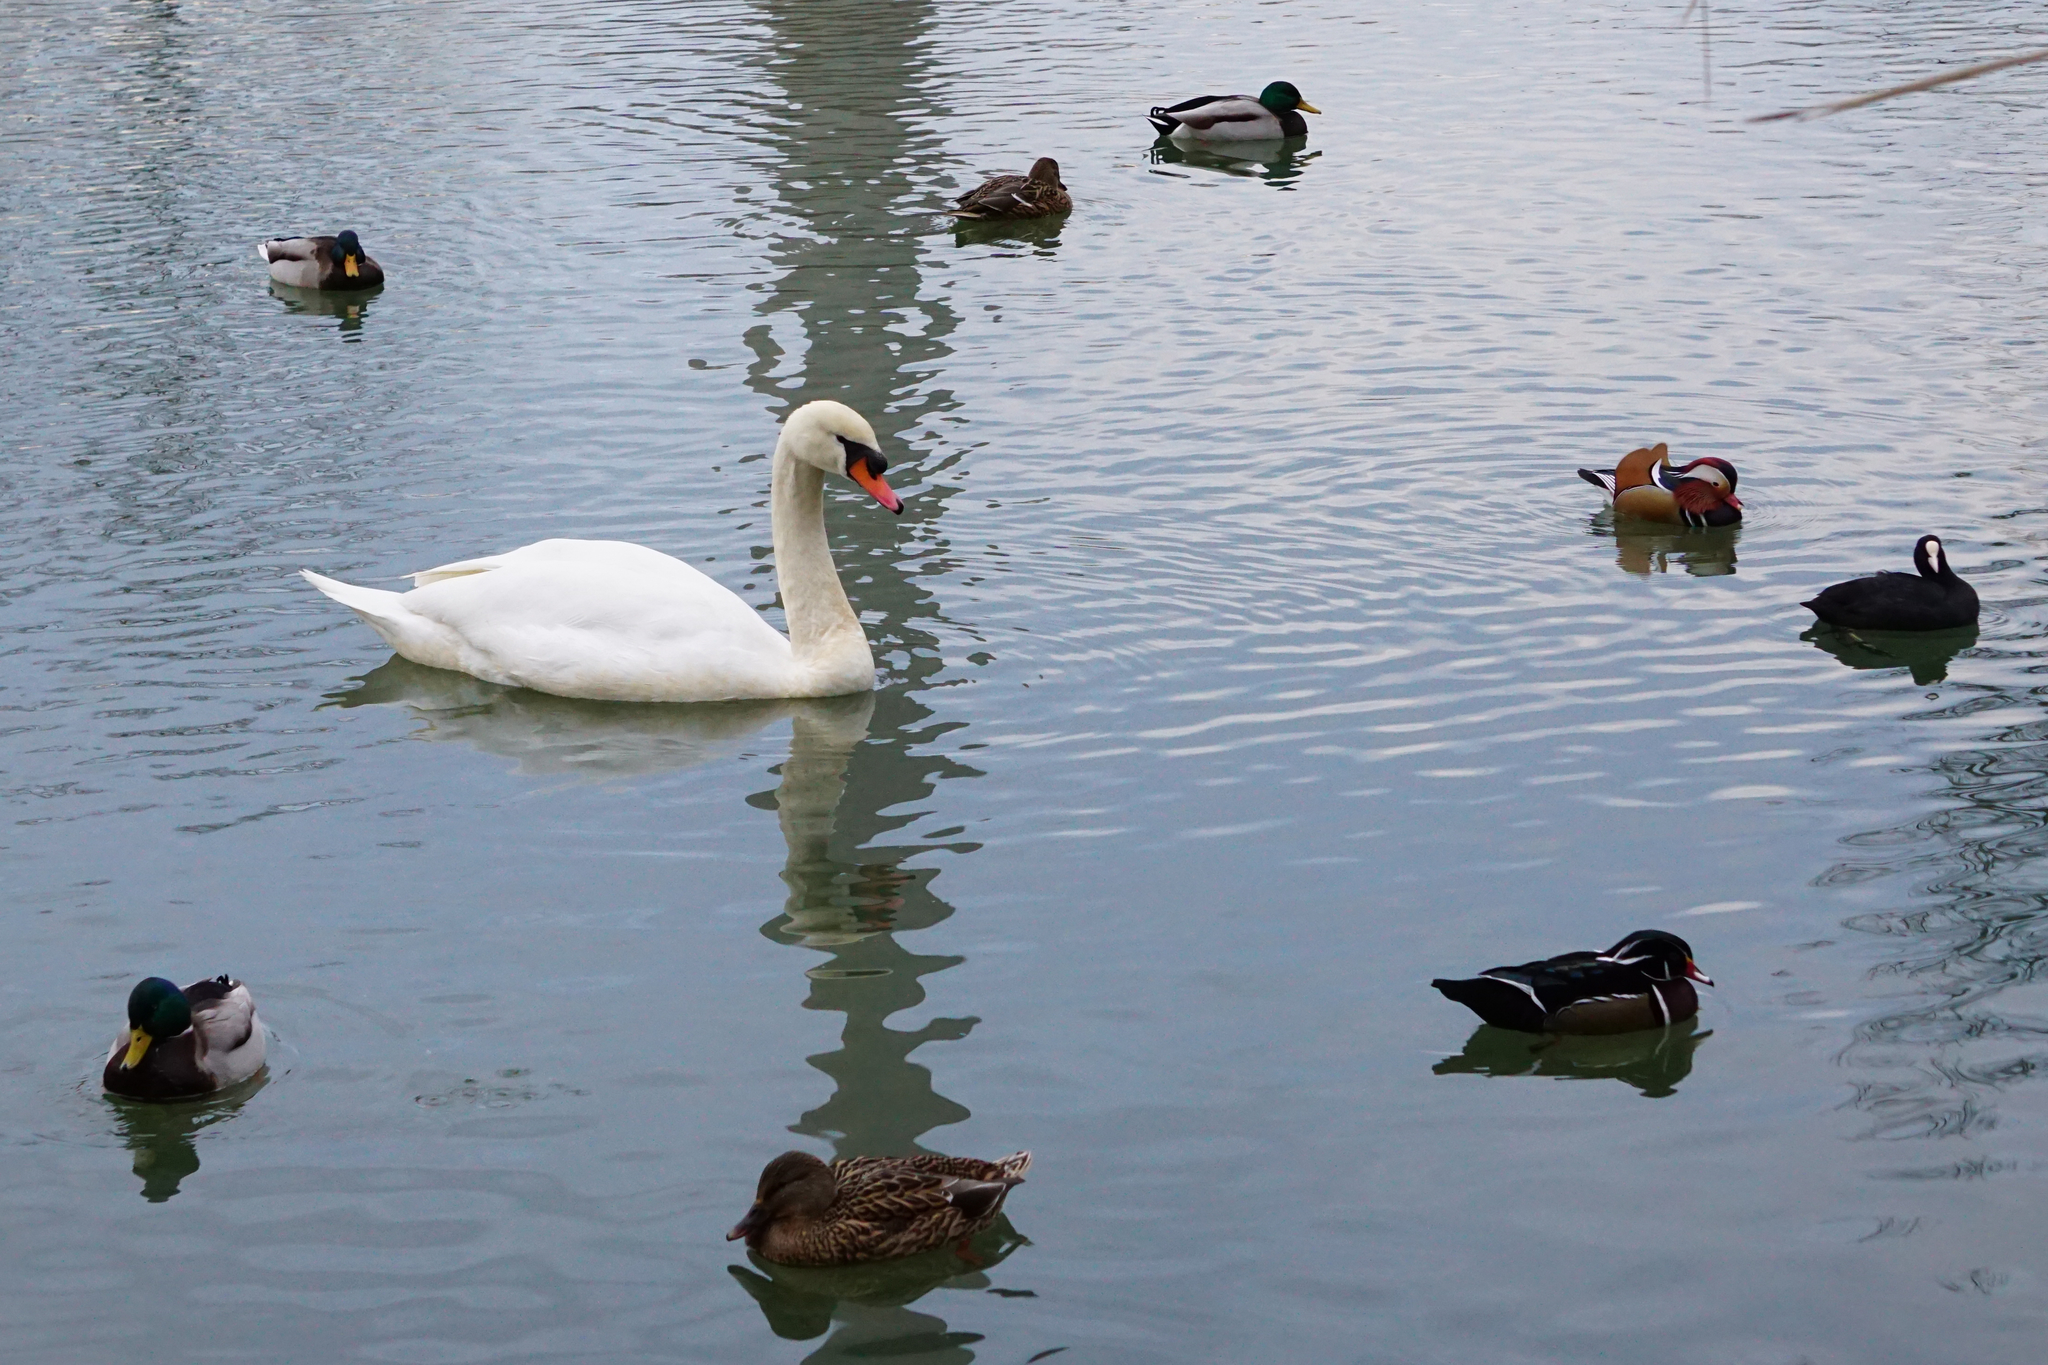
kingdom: Animalia
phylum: Chordata
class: Aves
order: Anseriformes
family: Anatidae
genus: Cygnus
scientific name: Cygnus olor
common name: Mute swan
